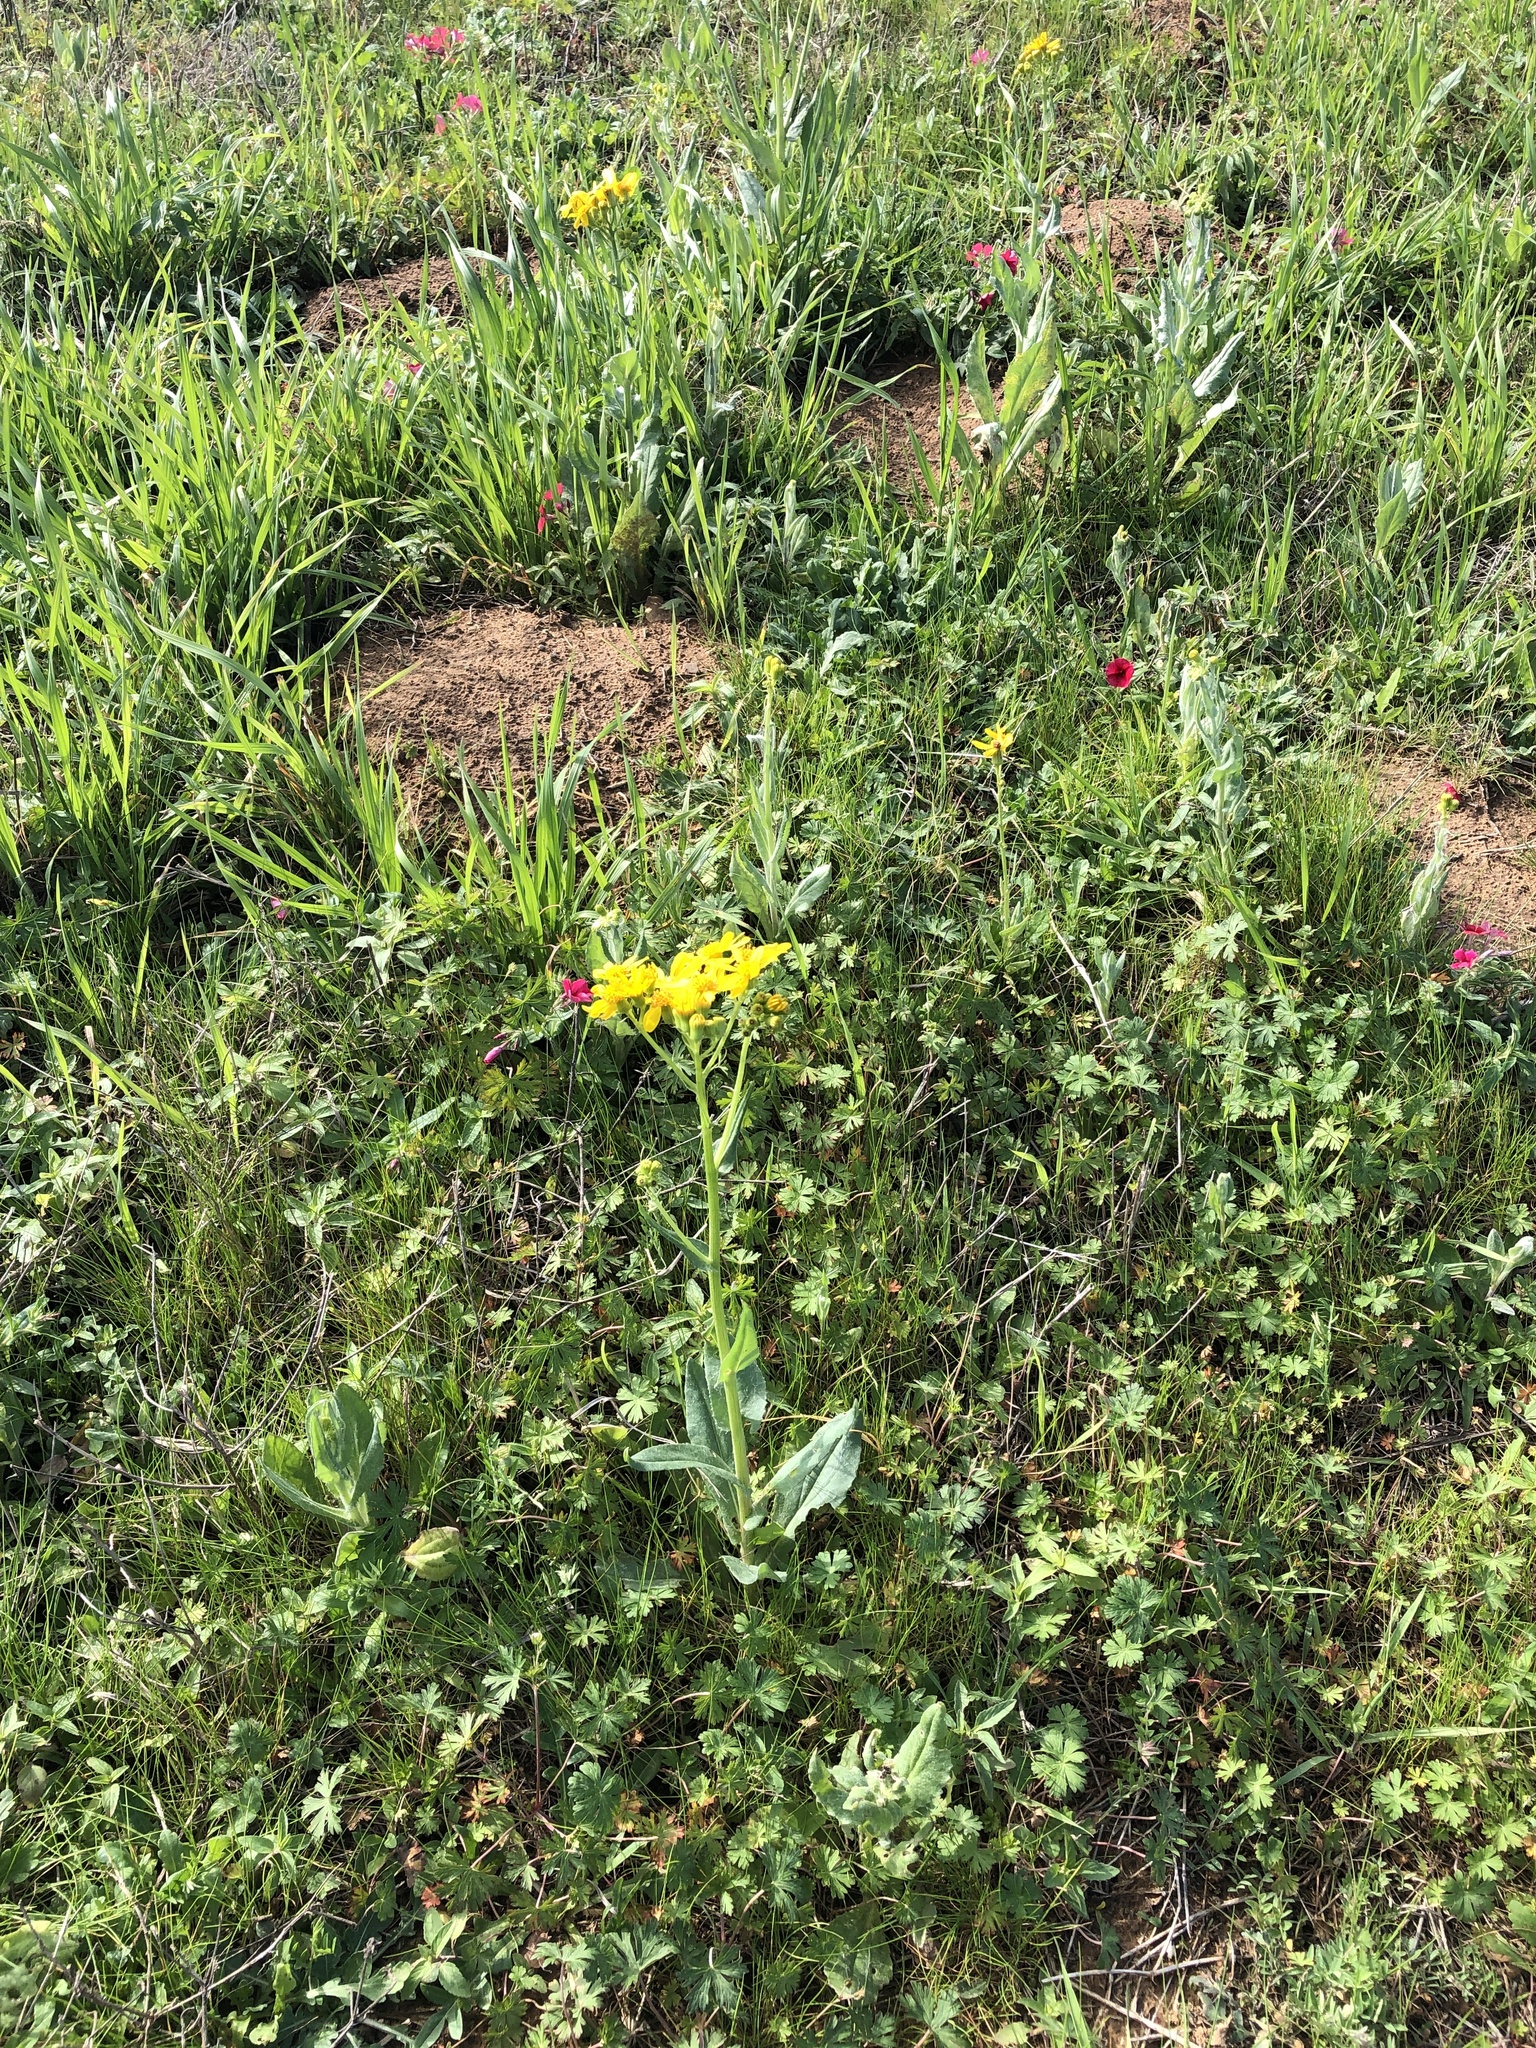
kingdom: Plantae
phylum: Tracheophyta
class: Magnoliopsida
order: Asterales
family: Asteraceae
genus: Senecio
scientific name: Senecio ampullaceus
